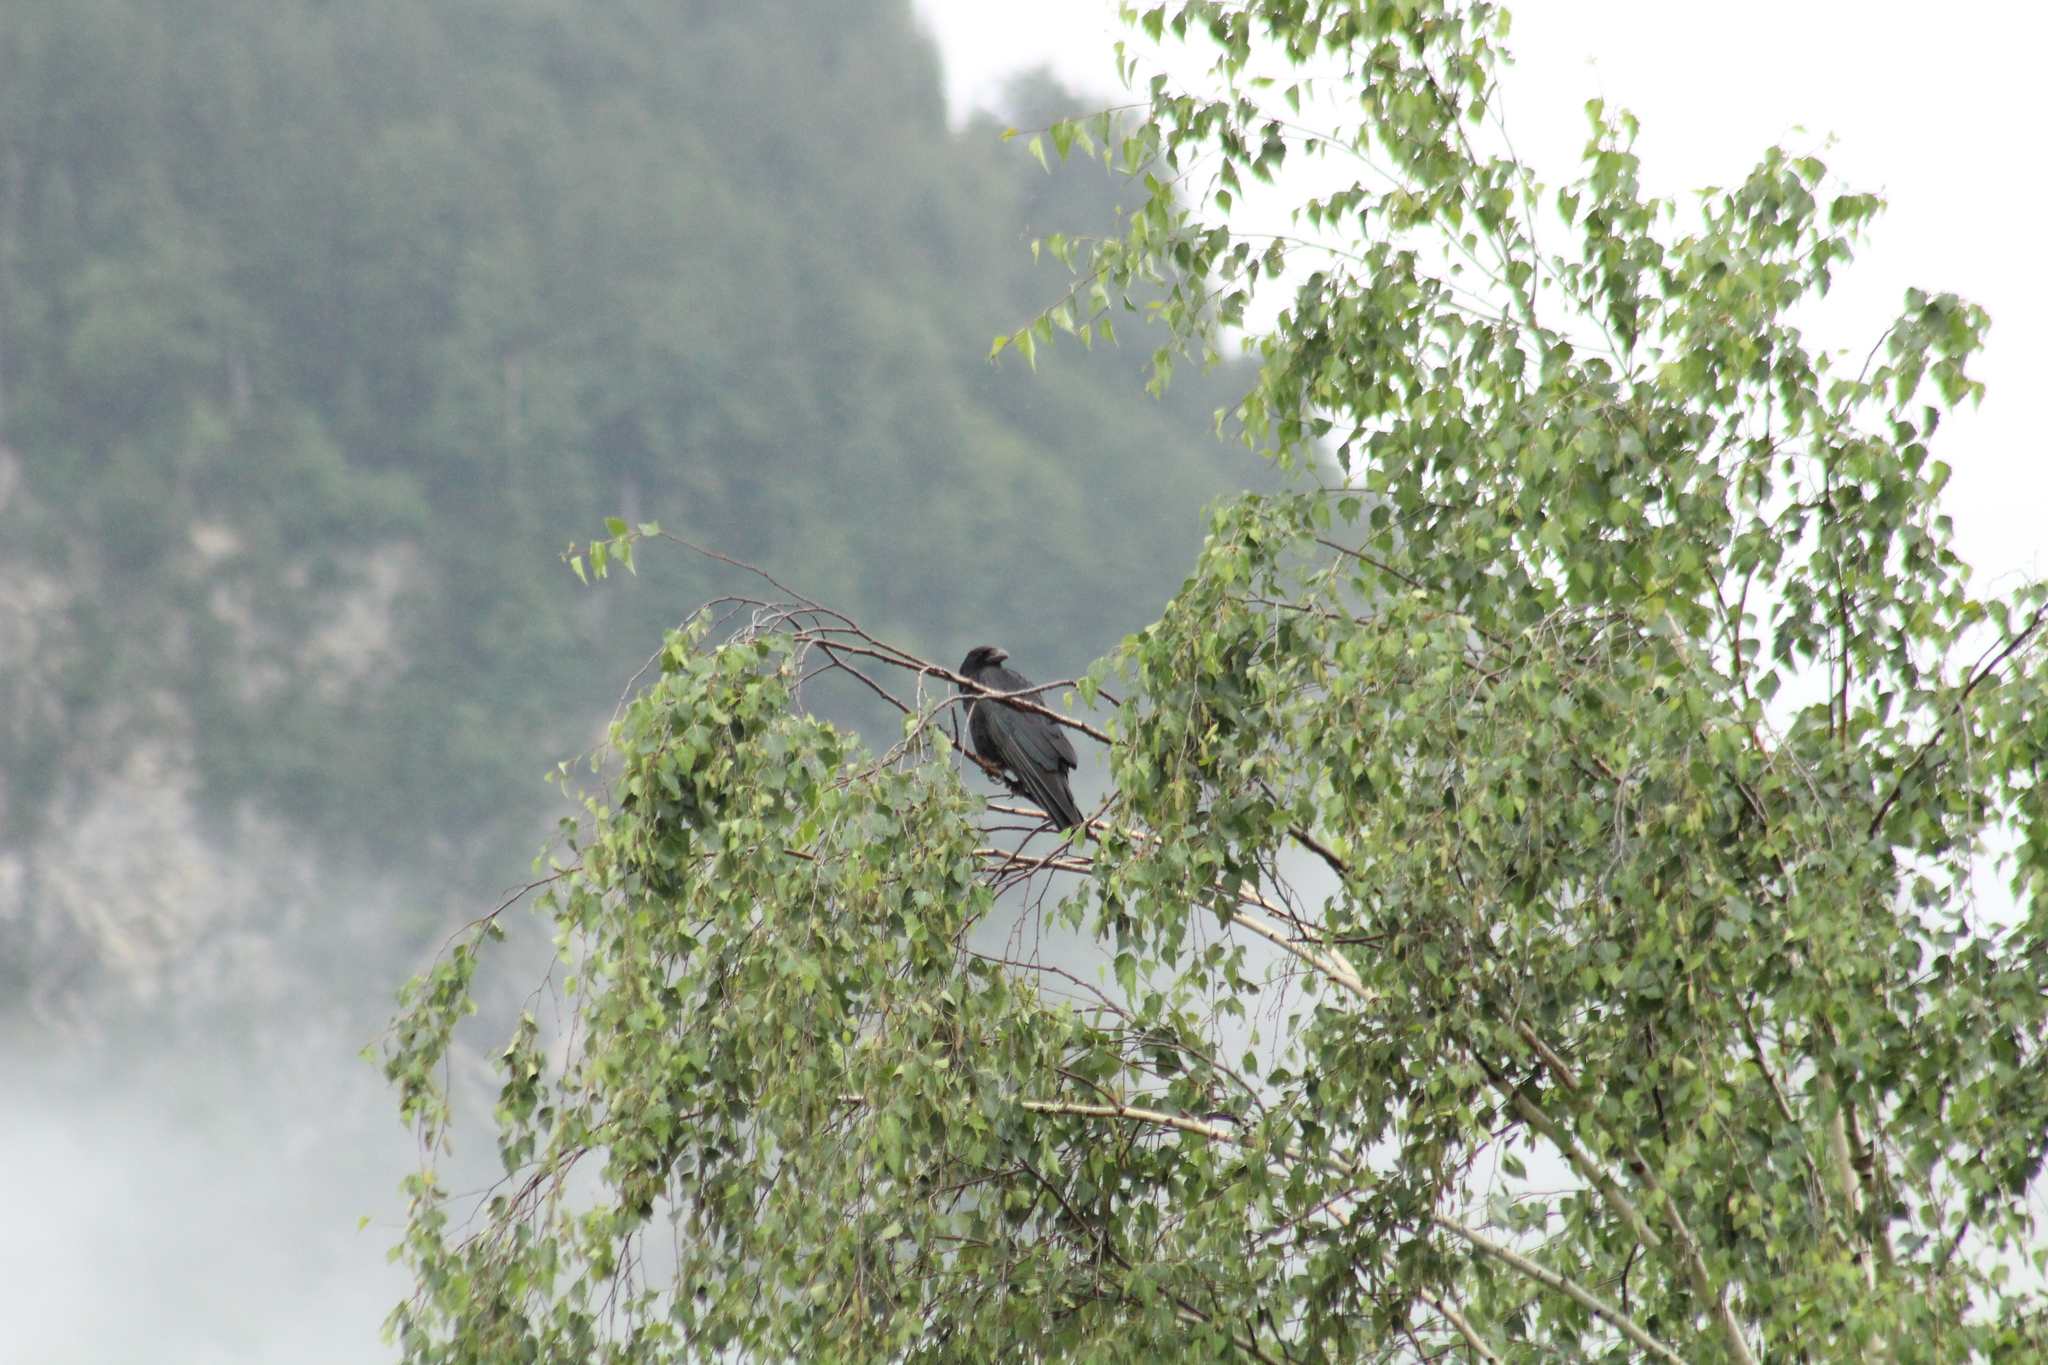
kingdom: Animalia
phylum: Chordata
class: Aves
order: Passeriformes
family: Corvidae
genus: Corvus
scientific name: Corvus corone
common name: Carrion crow
